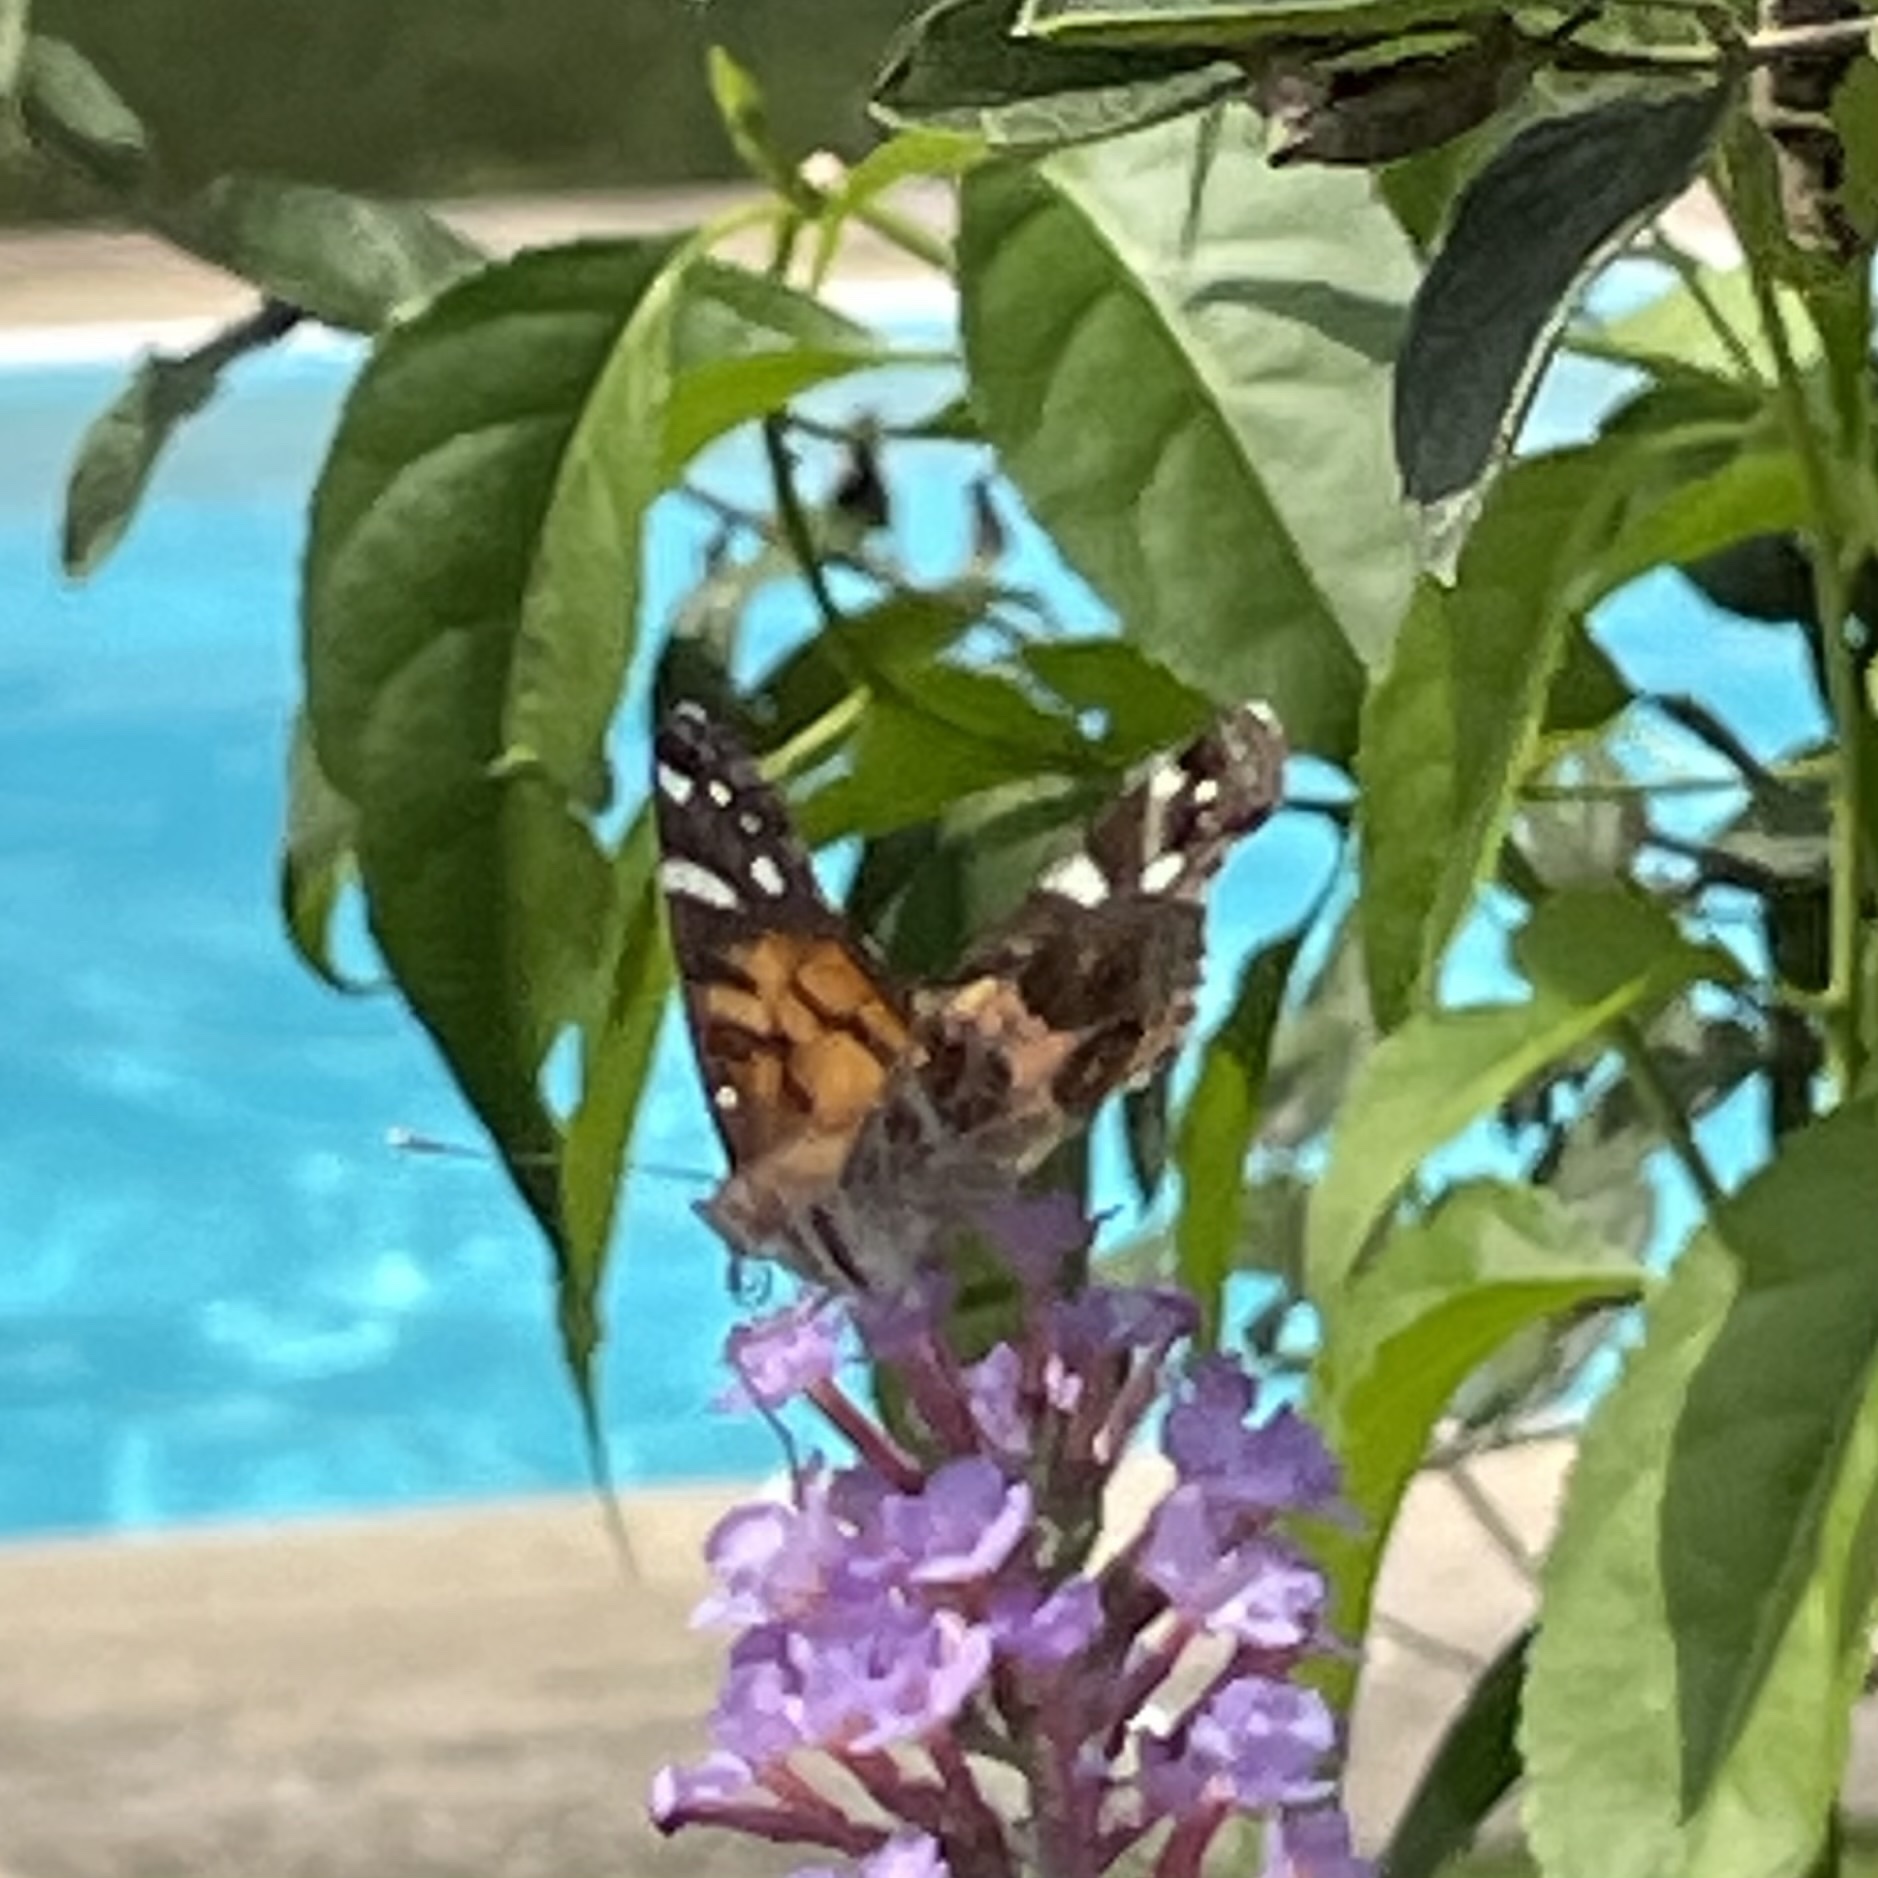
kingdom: Animalia
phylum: Arthropoda
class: Insecta
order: Lepidoptera
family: Nymphalidae
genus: Vanessa
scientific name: Vanessa virginiensis
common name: American lady
